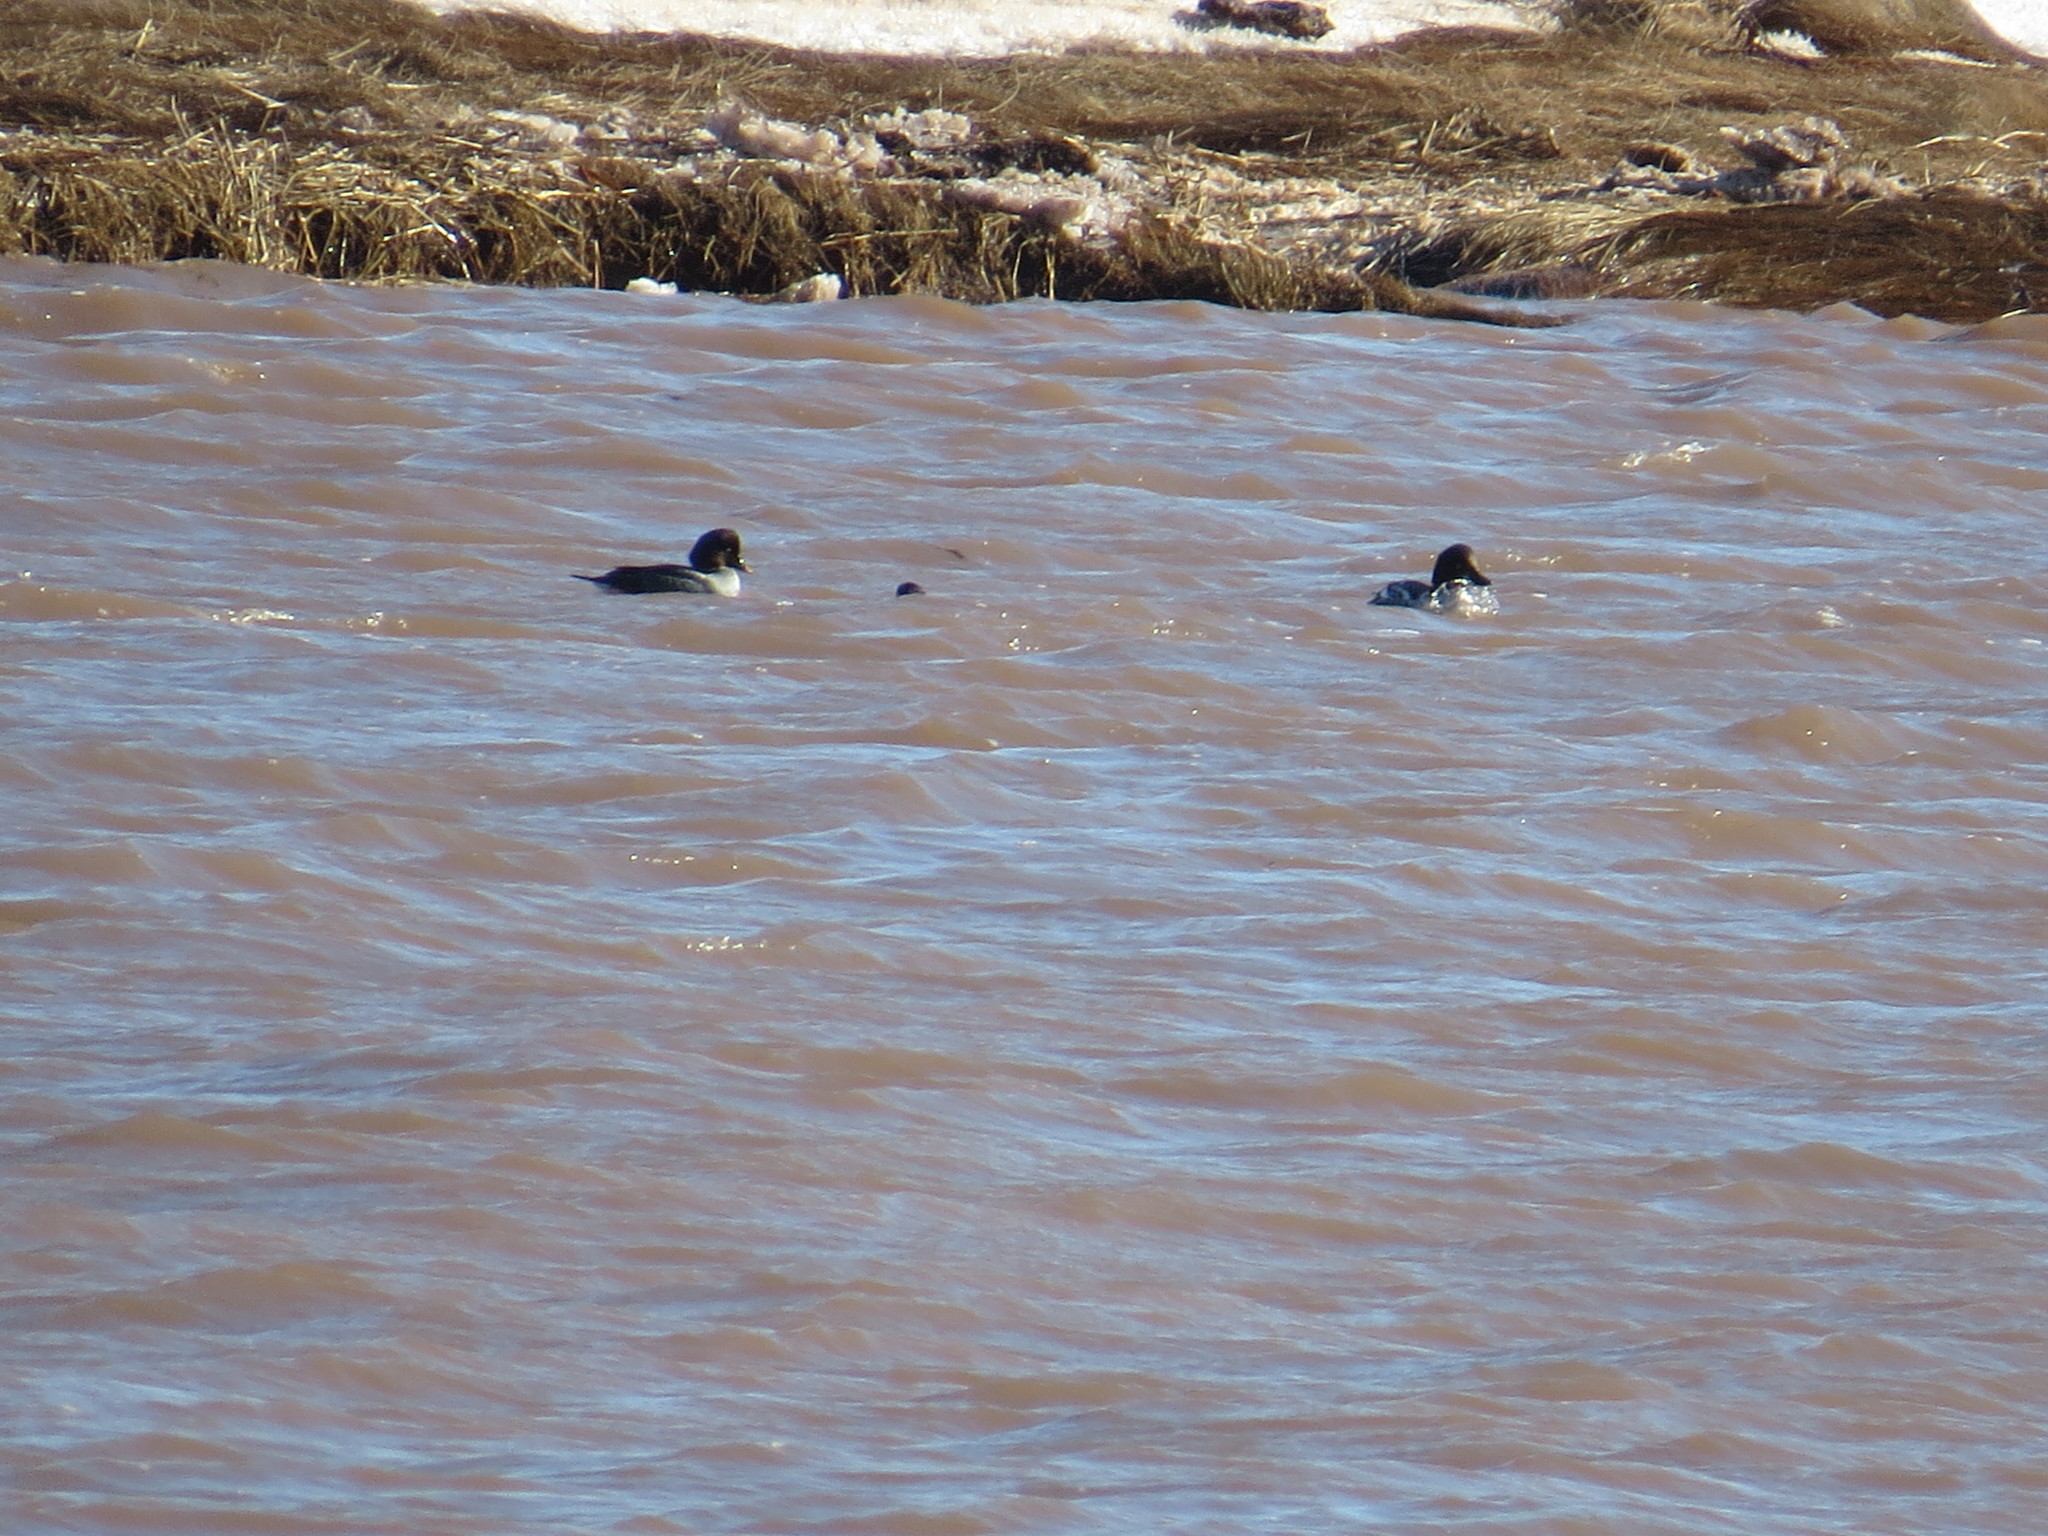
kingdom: Animalia
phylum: Chordata
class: Aves
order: Anseriformes
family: Anatidae
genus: Bucephala
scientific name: Bucephala clangula
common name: Common goldeneye
